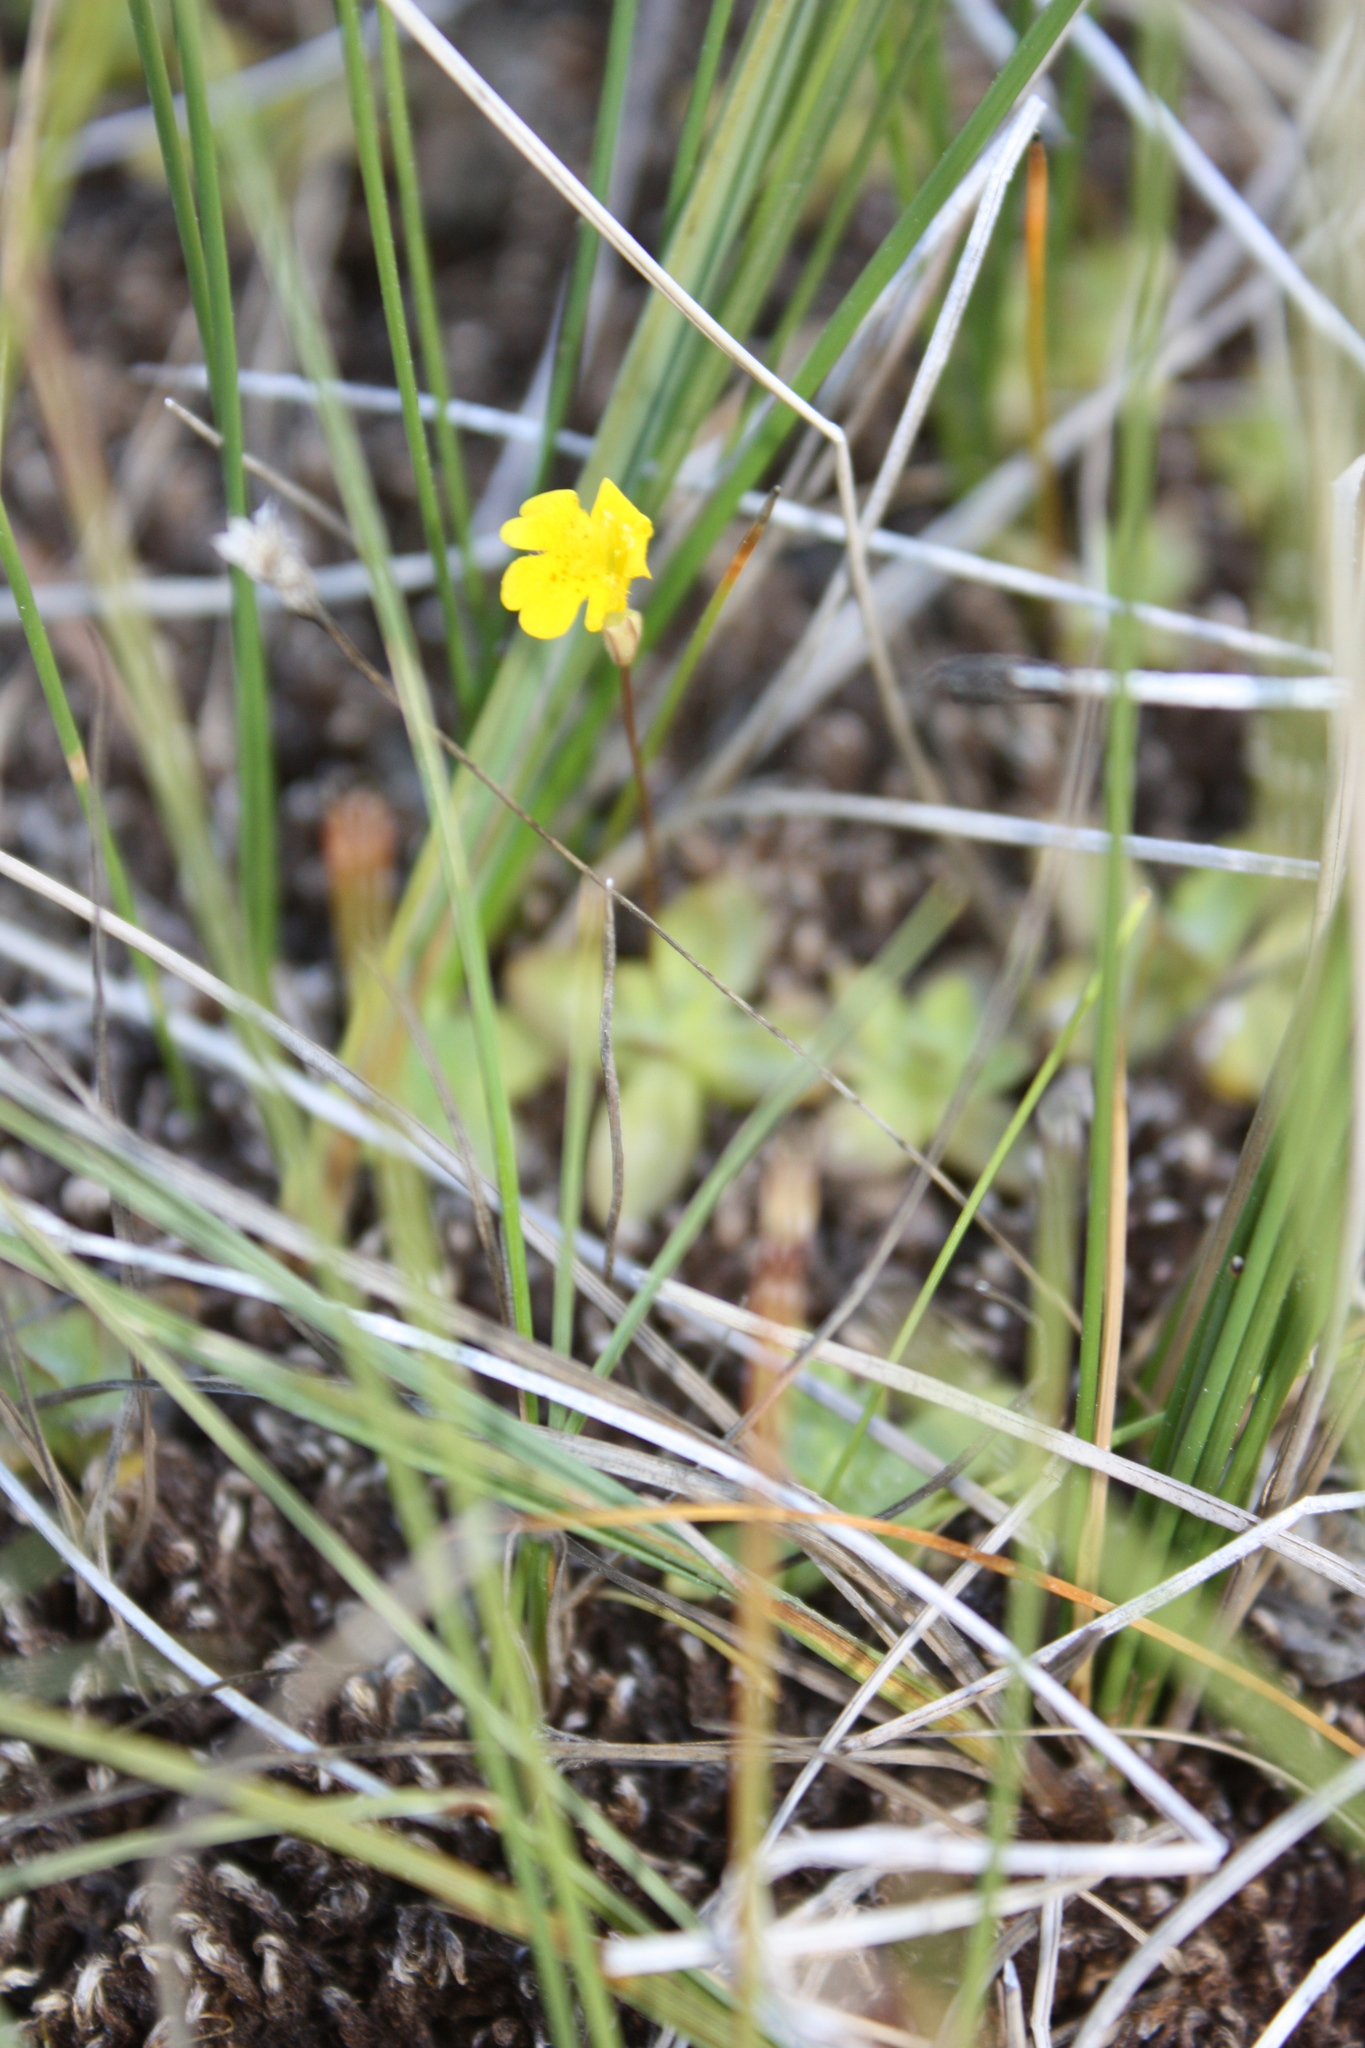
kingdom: Plantae
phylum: Tracheophyta
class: Magnoliopsida
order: Lamiales
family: Phrymaceae
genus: Erythranthe
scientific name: Erythranthe primuloides
